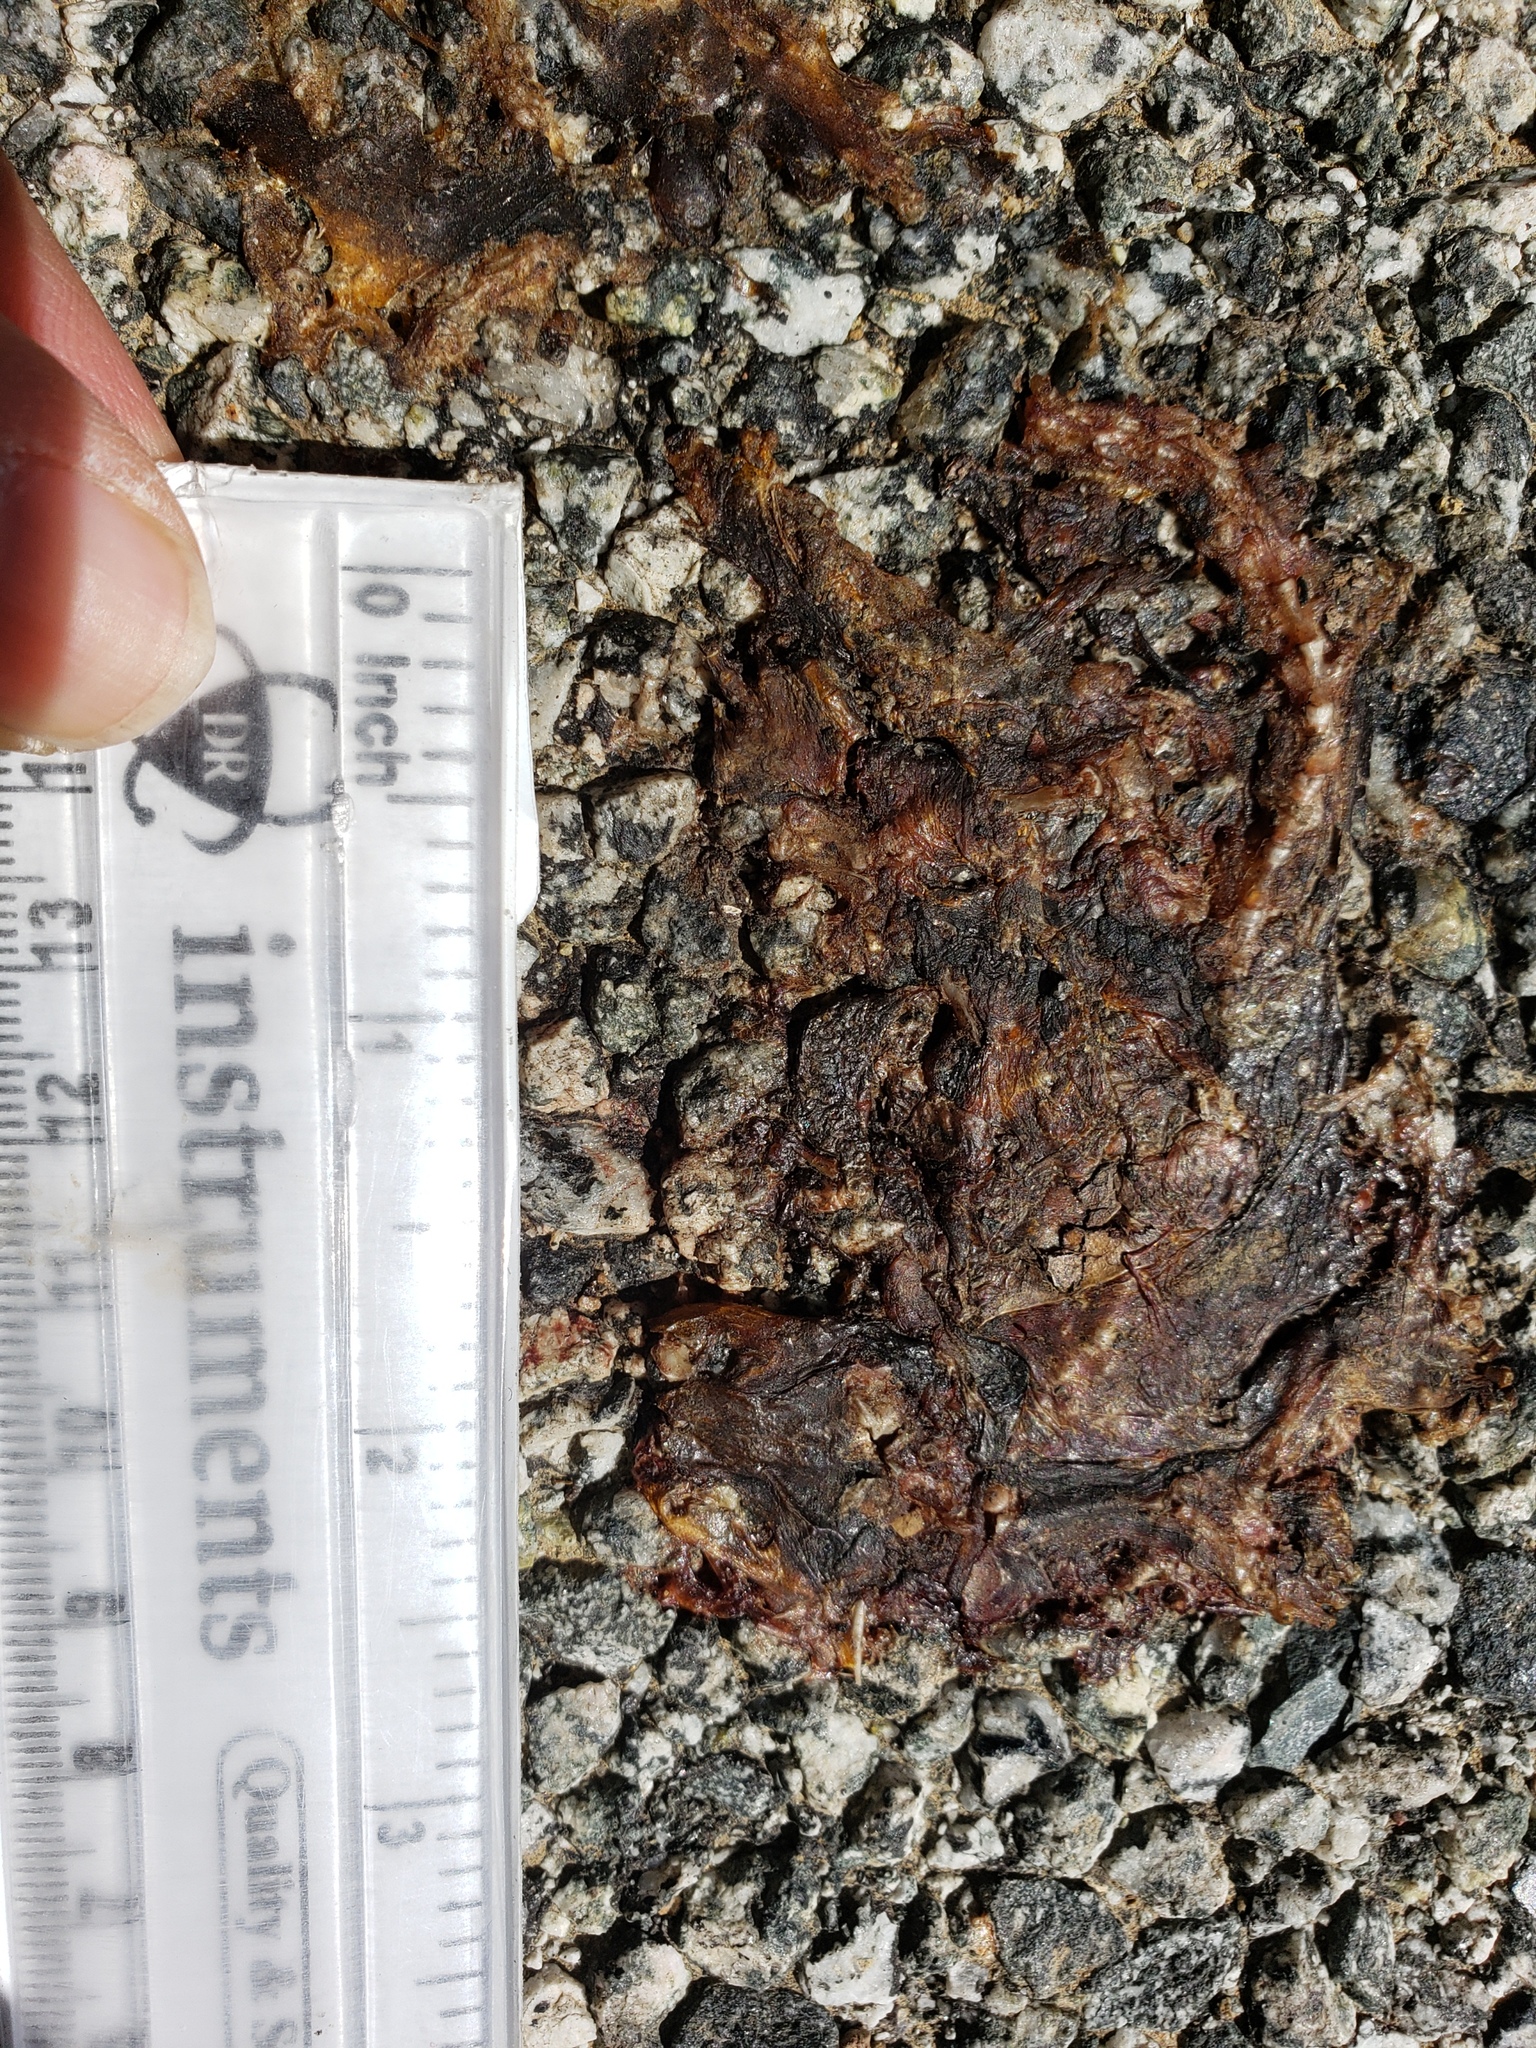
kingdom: Animalia
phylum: Chordata
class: Amphibia
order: Caudata
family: Salamandridae
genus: Taricha
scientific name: Taricha
